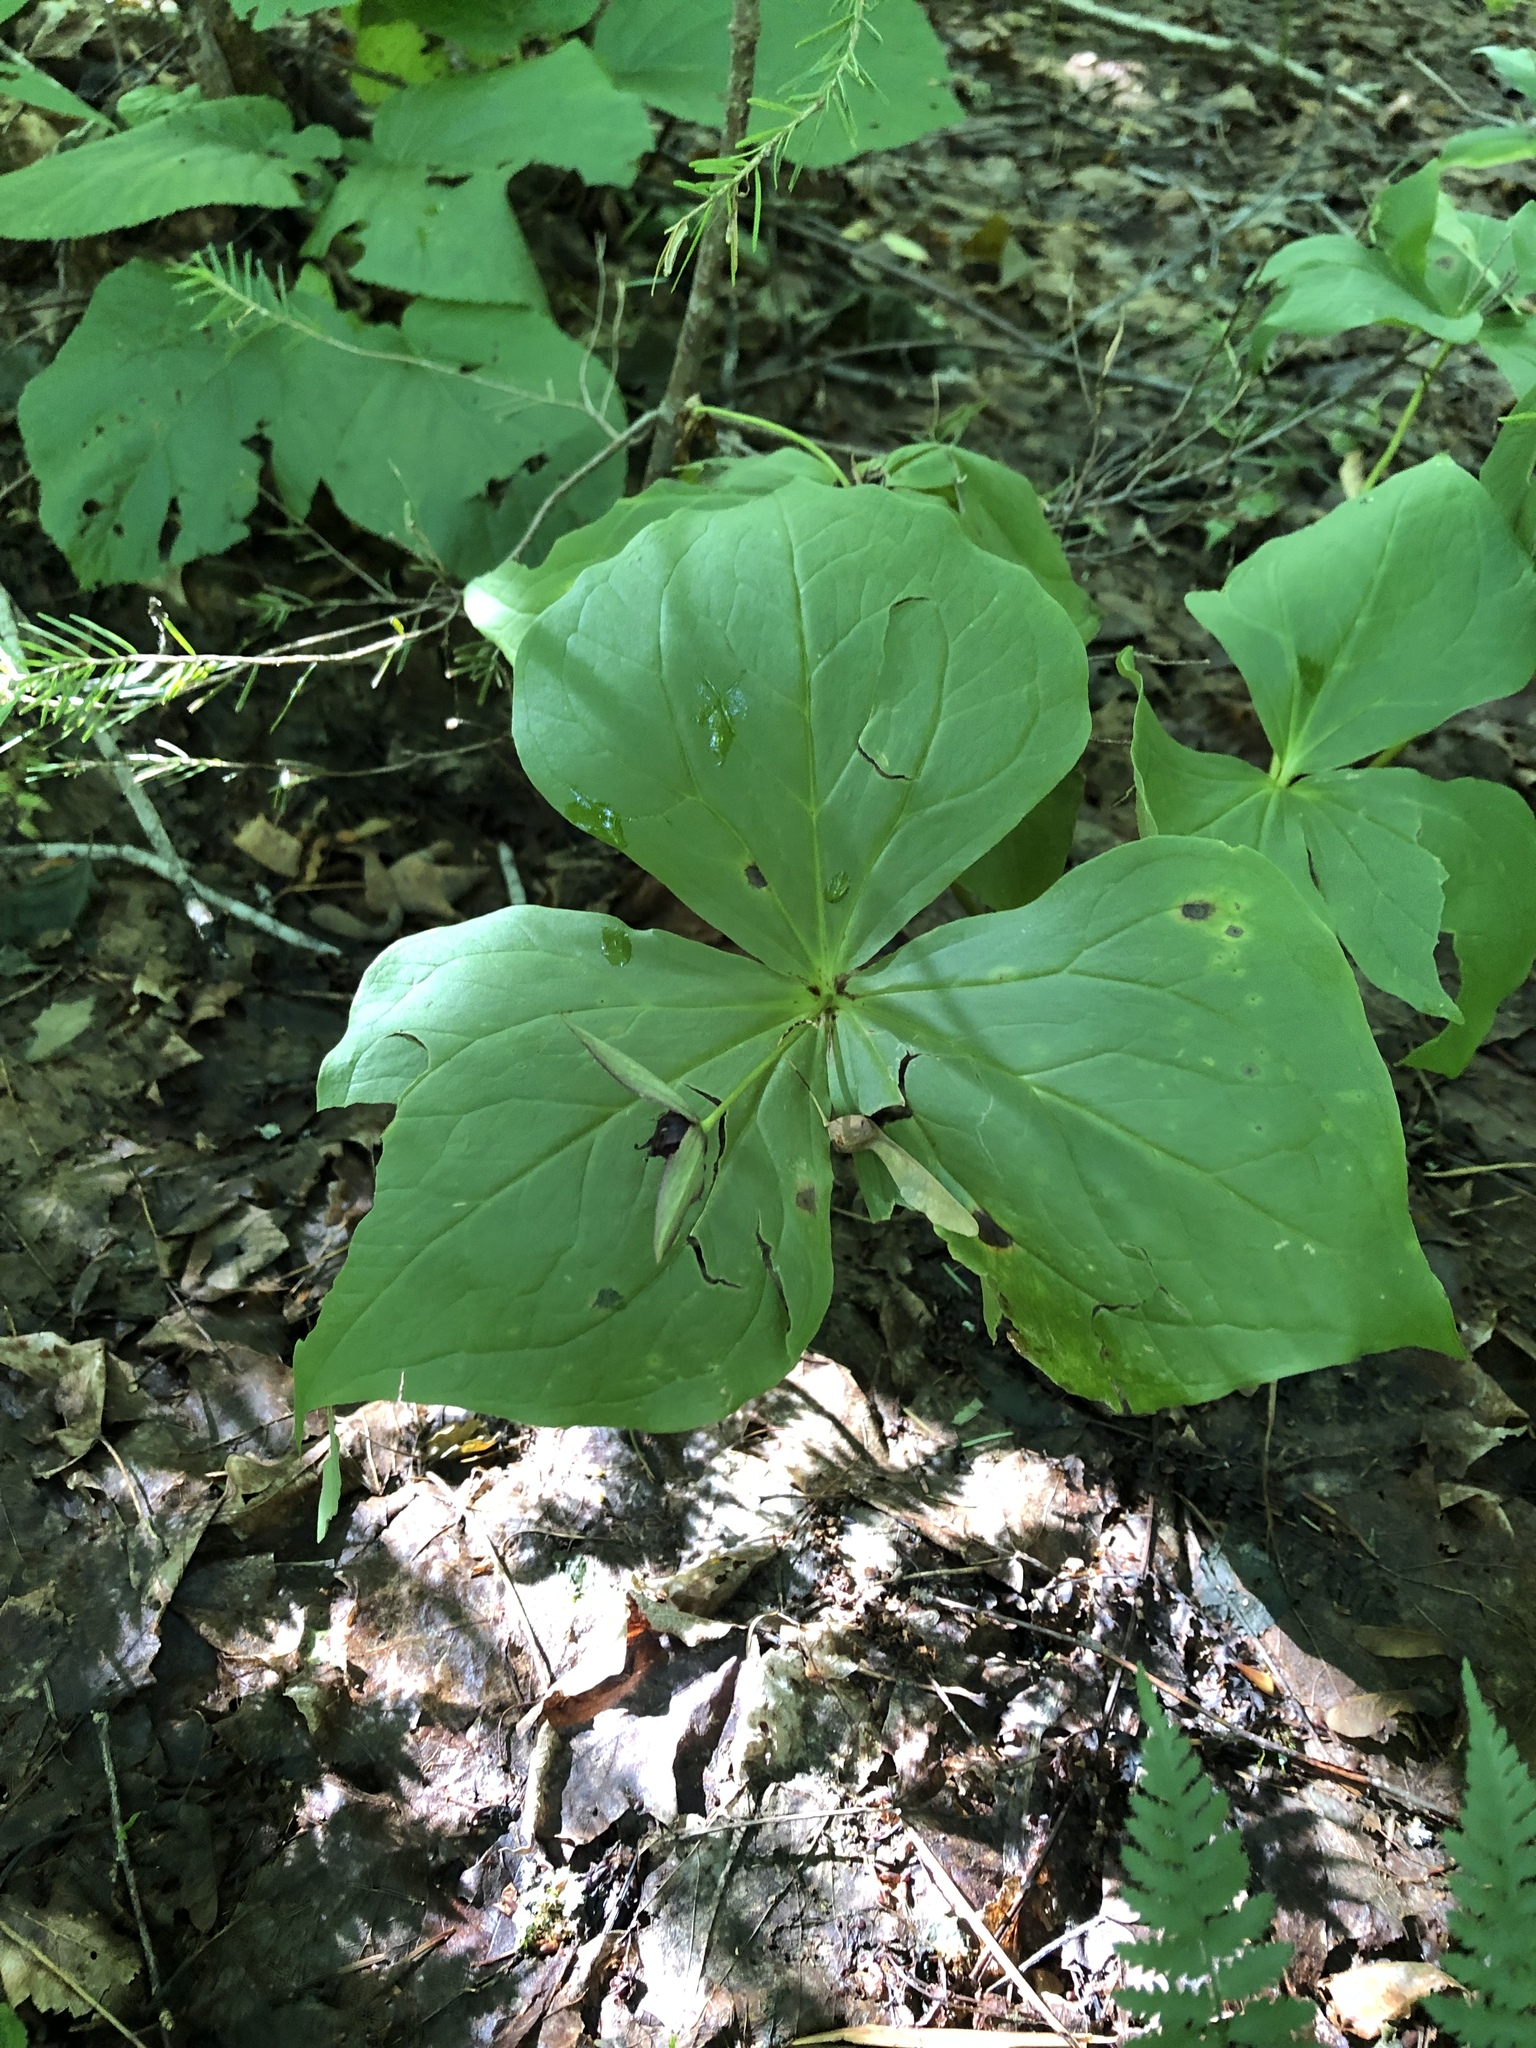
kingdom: Plantae
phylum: Tracheophyta
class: Liliopsida
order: Liliales
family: Melanthiaceae
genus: Trillium
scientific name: Trillium erectum
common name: Purple trillium
